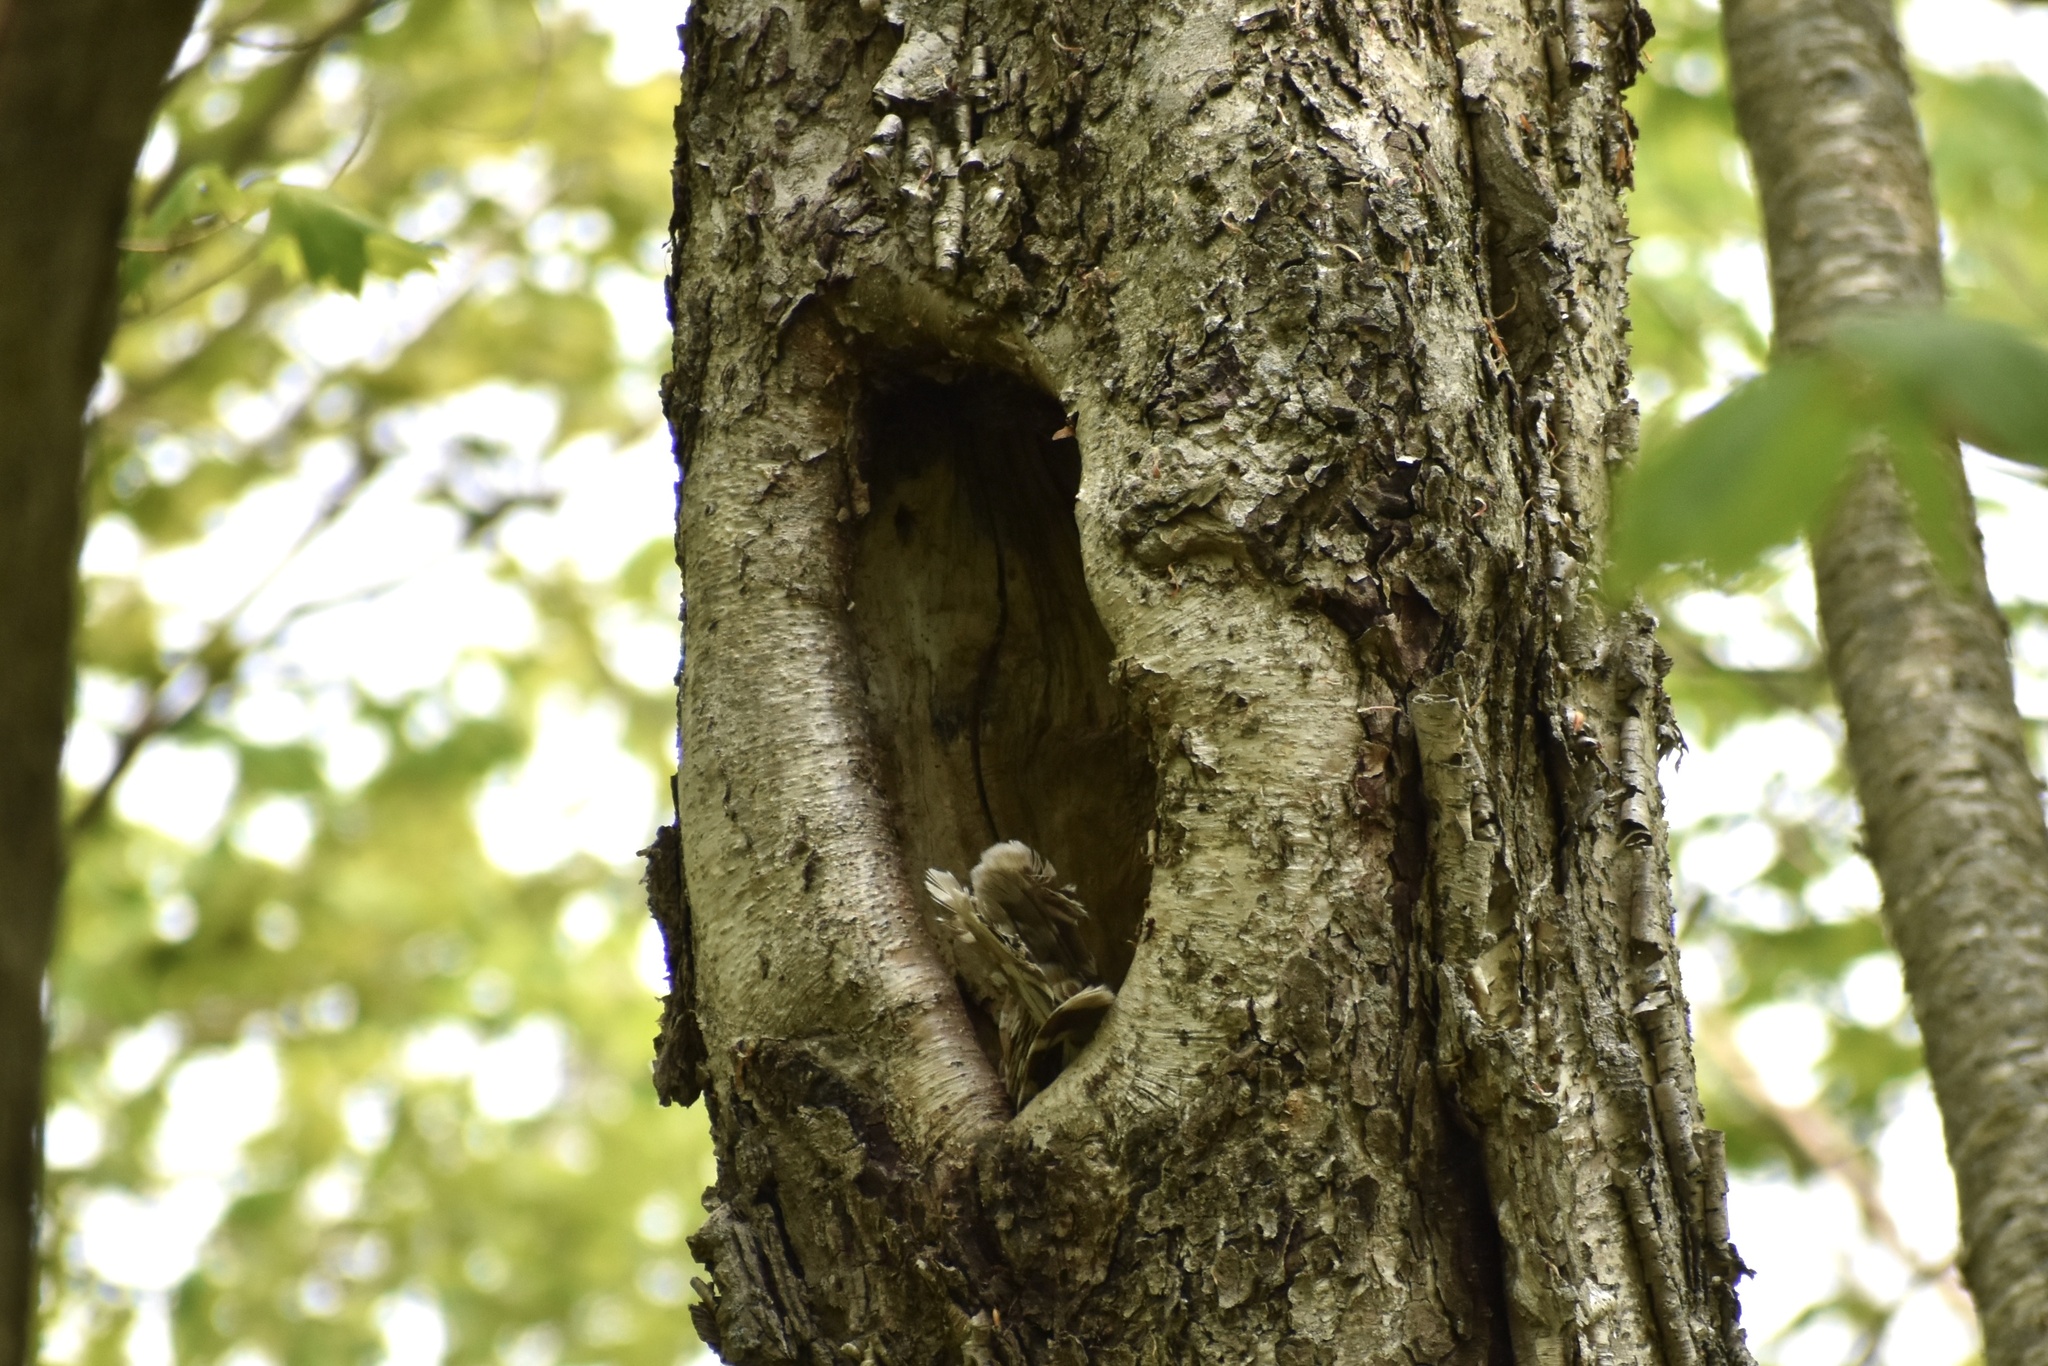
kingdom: Animalia
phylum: Chordata
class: Aves
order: Strigiformes
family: Strigidae
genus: Strix
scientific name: Strix varia
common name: Barred owl
